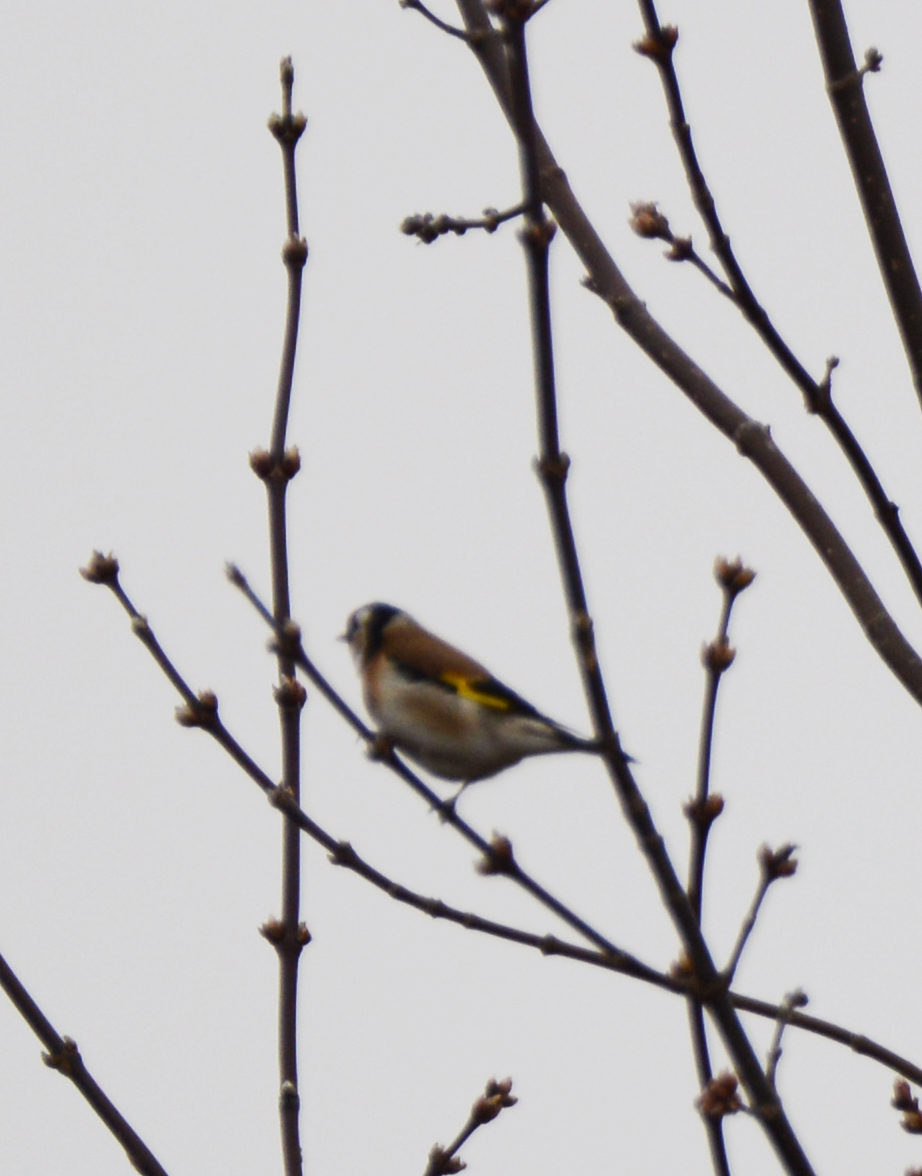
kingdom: Animalia
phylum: Chordata
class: Aves
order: Passeriformes
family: Fringillidae
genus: Carduelis
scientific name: Carduelis carduelis
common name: European goldfinch
